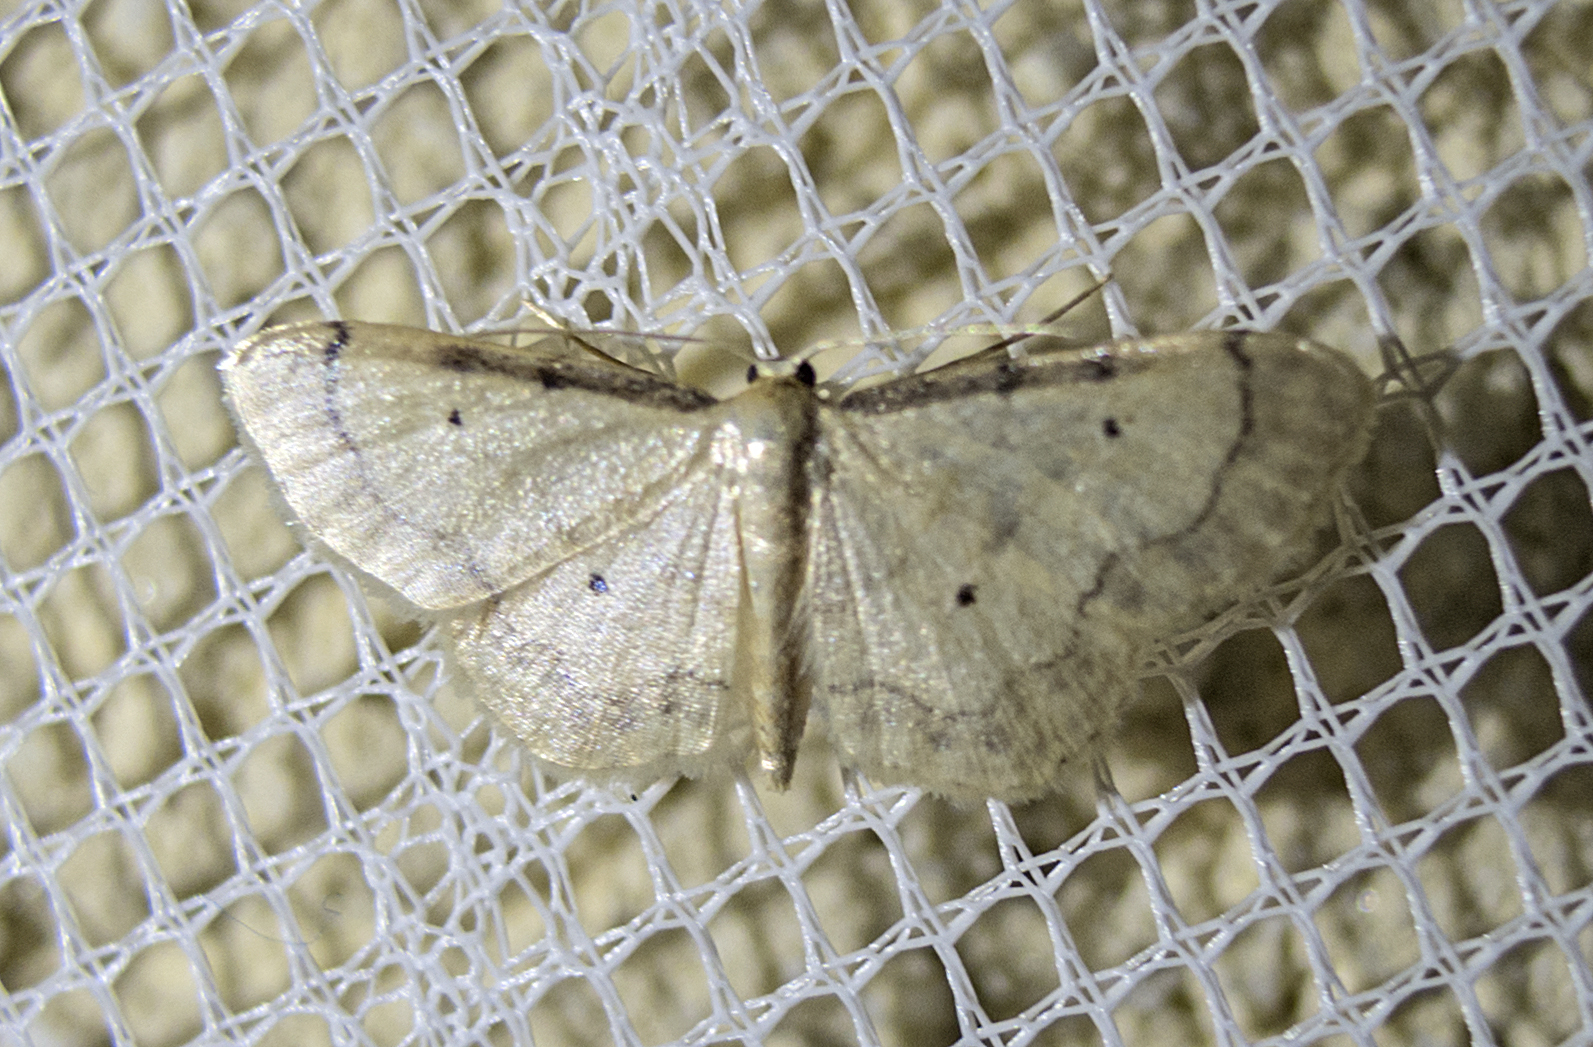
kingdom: Animalia
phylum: Arthropoda
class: Insecta
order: Lepidoptera
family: Geometridae
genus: Idaea
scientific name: Idaea politaria
